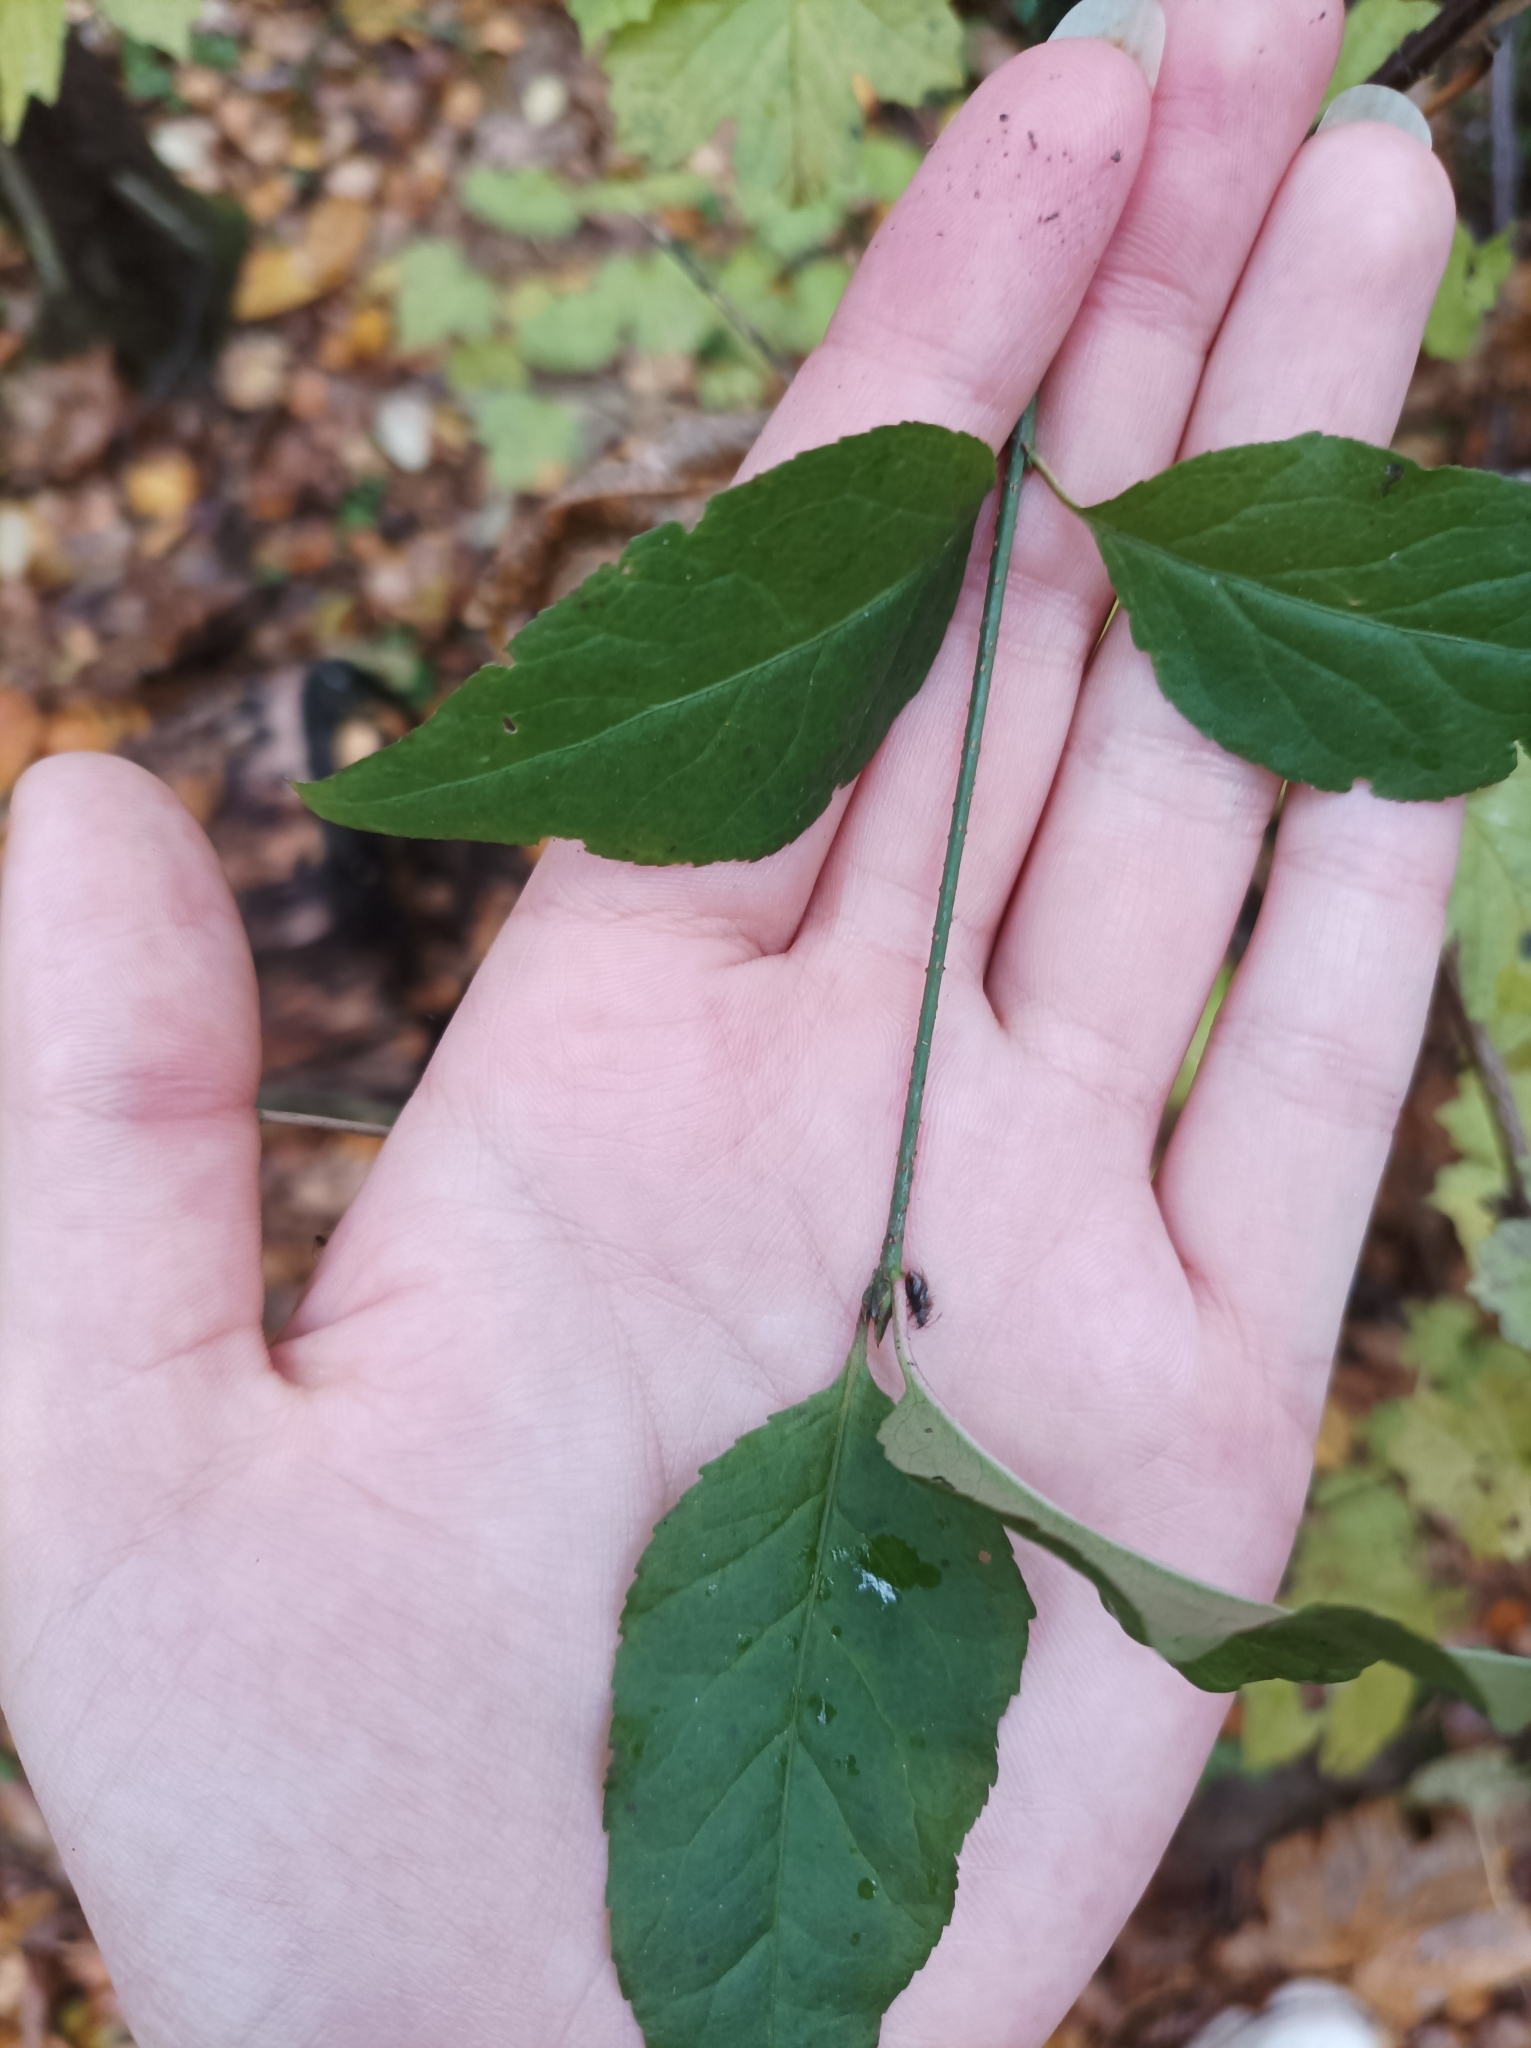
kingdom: Plantae
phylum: Tracheophyta
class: Magnoliopsida
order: Celastrales
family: Celastraceae
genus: Euonymus
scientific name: Euonymus europaeus
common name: Spindle
